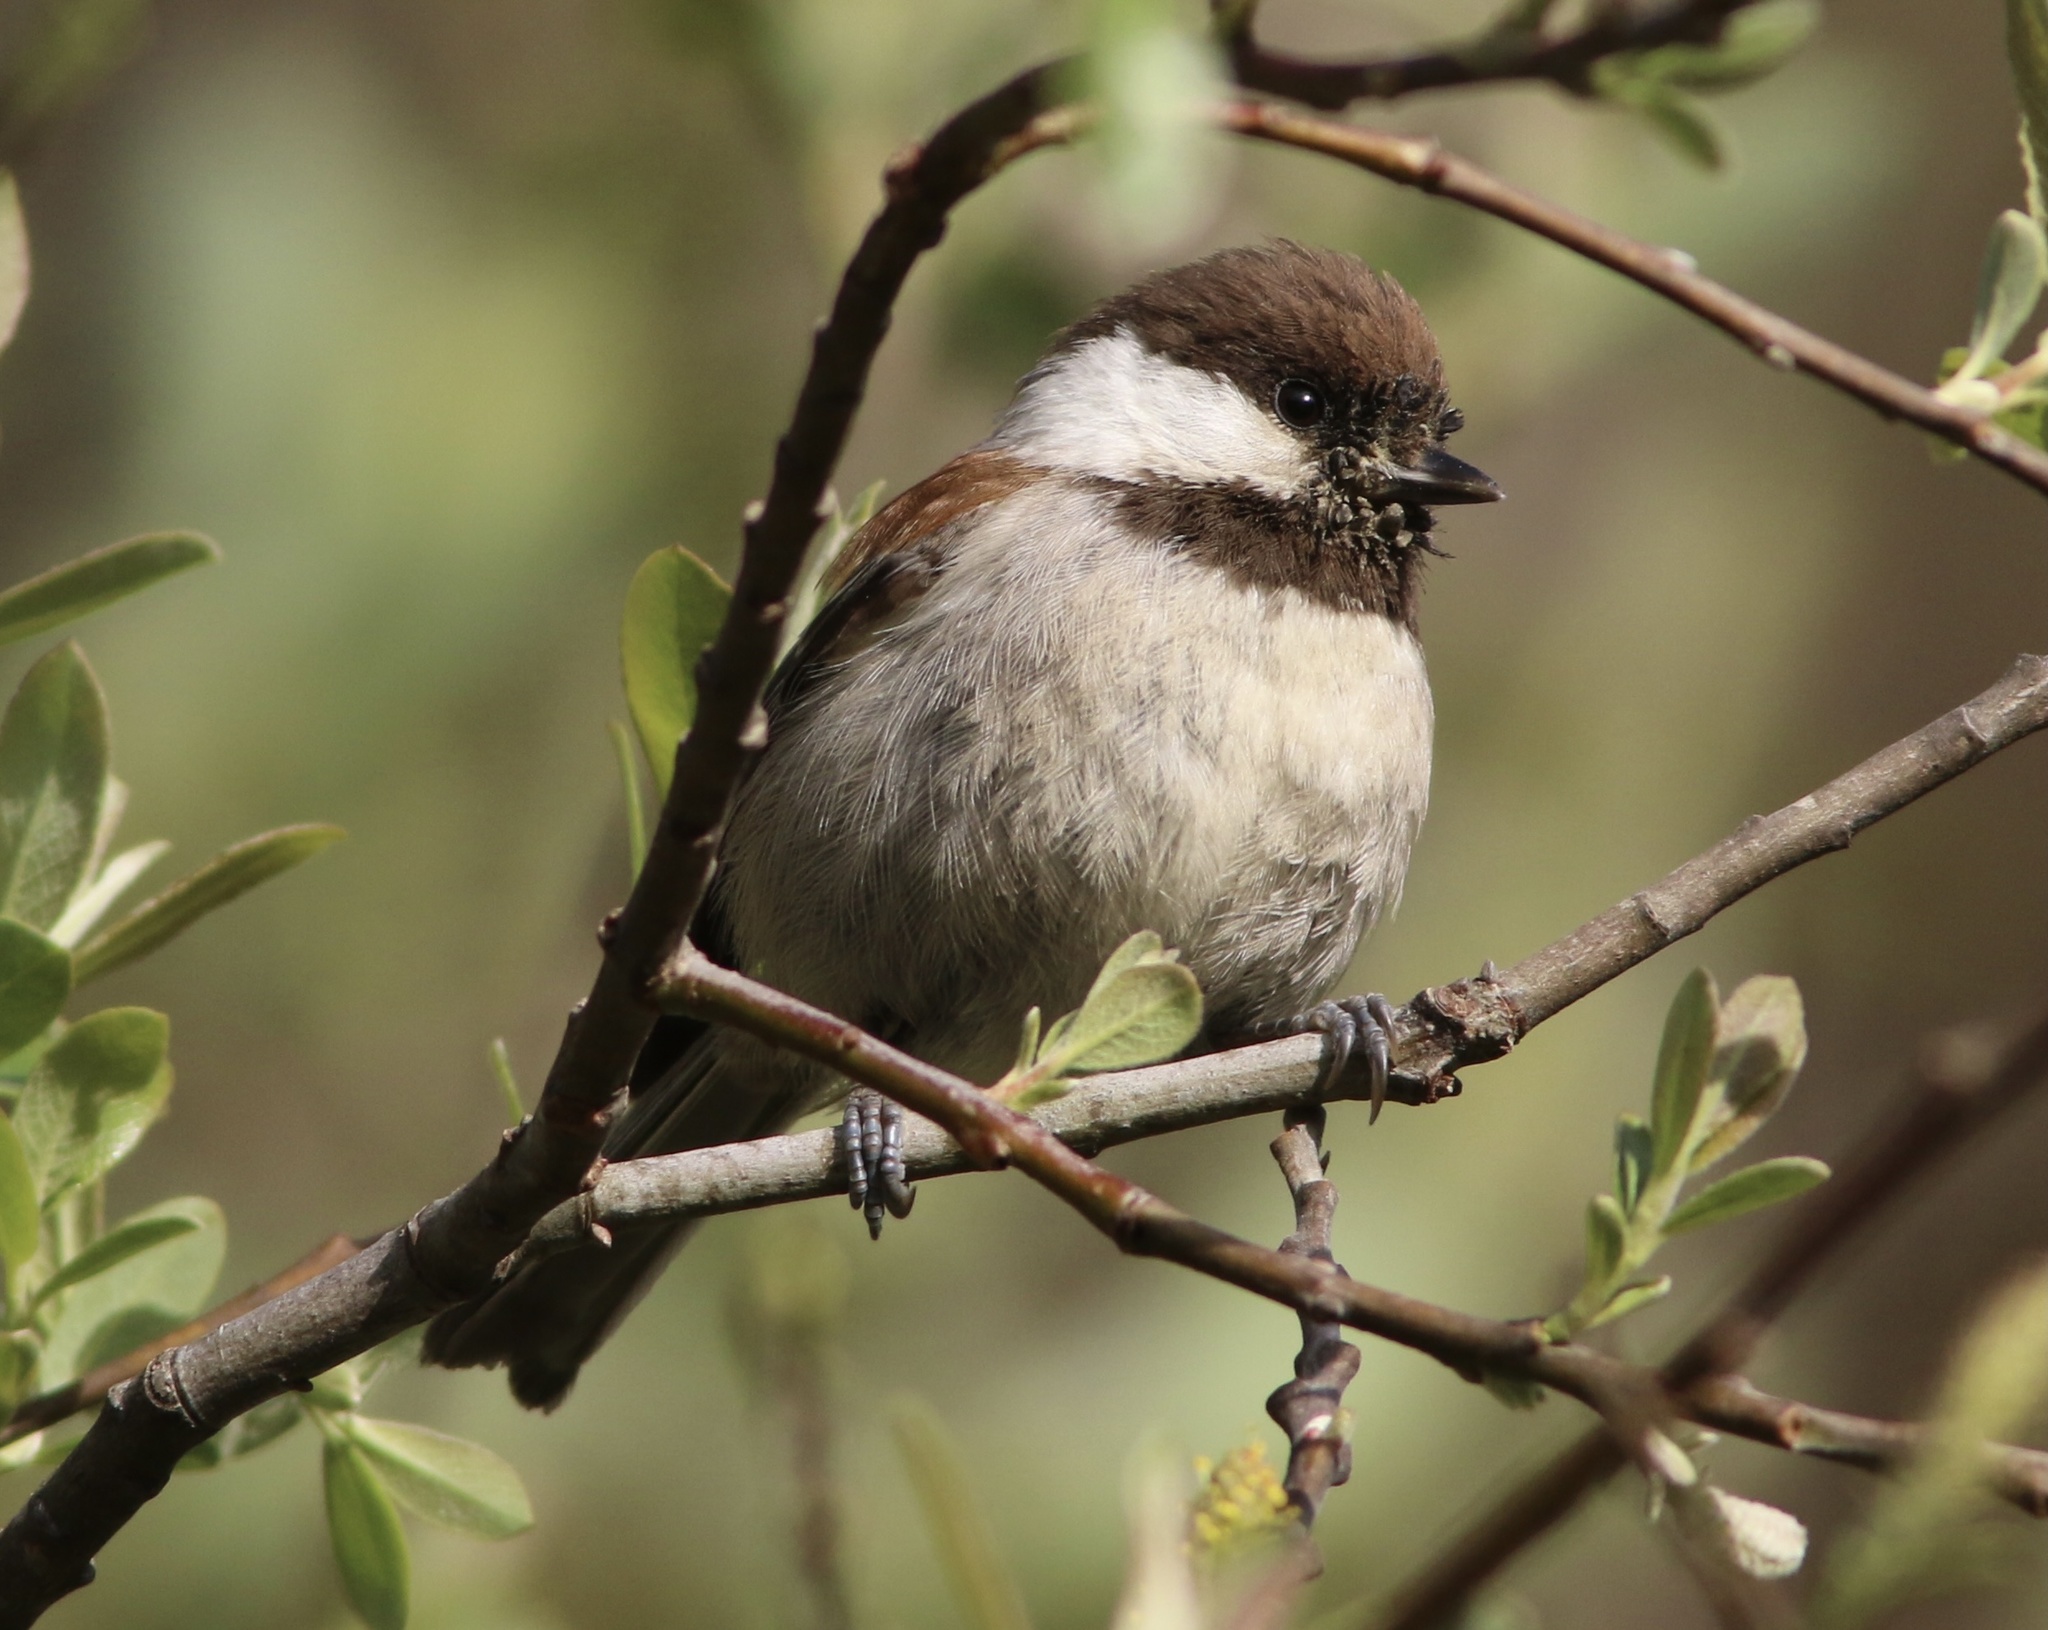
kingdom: Animalia
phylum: Chordata
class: Aves
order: Passeriformes
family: Paridae
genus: Poecile
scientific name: Poecile rufescens
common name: Chestnut-backed chickadee
